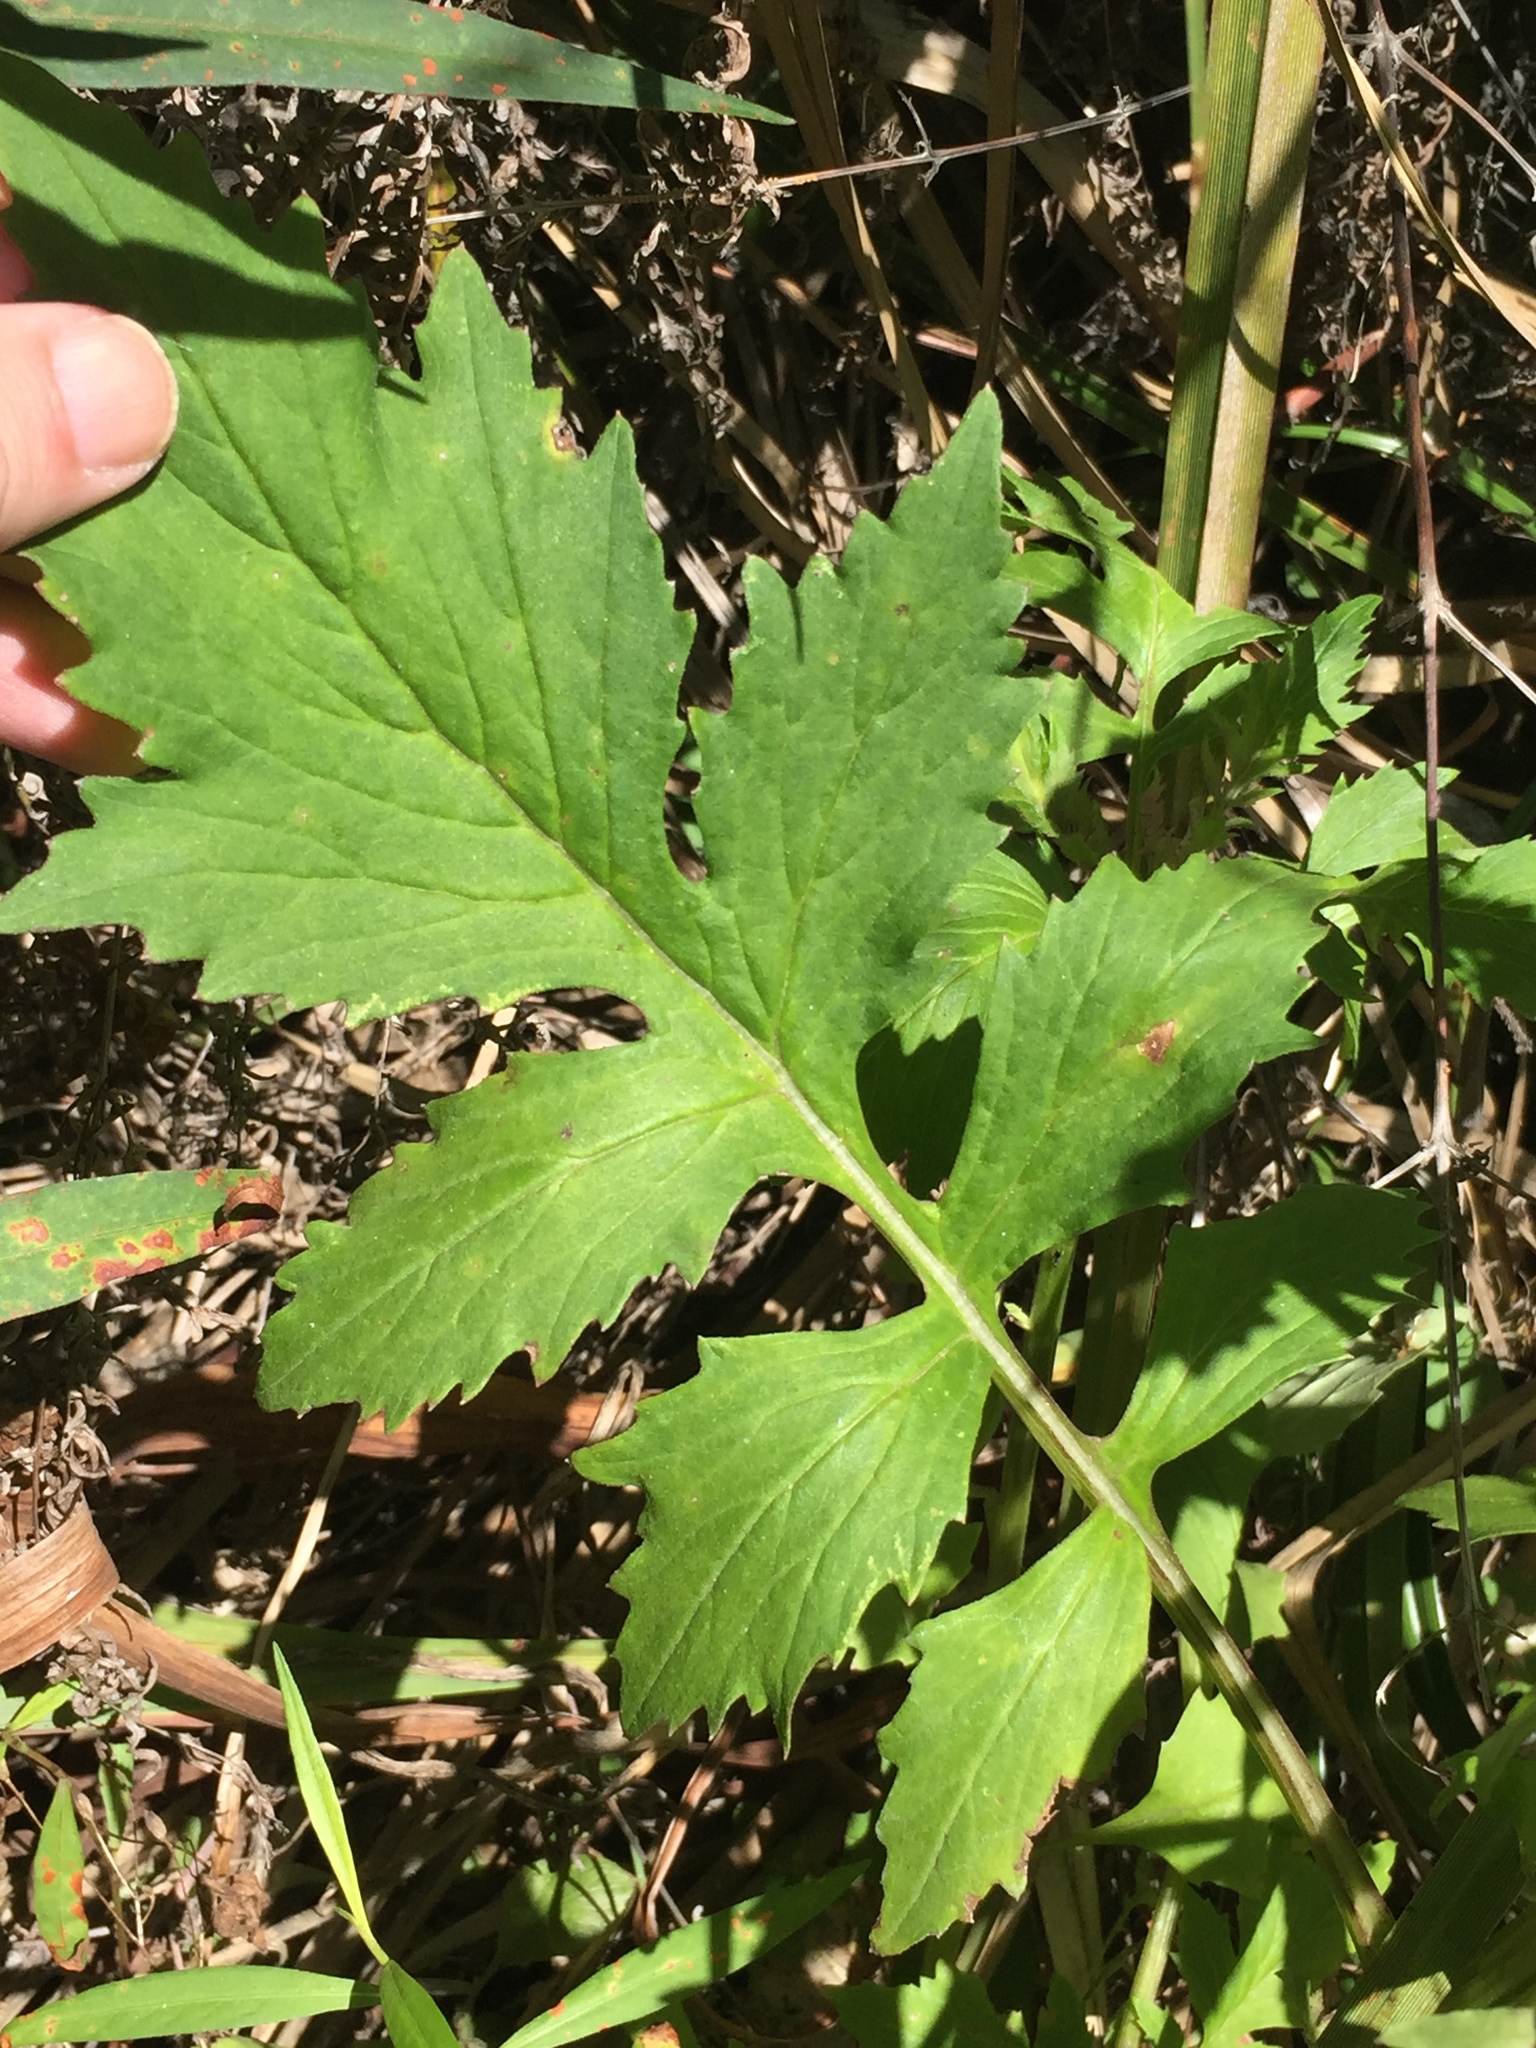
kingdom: Plantae
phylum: Tracheophyta
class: Magnoliopsida
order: Asterales
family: Asteraceae
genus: Erechtites
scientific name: Erechtites valerianifolius
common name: Tropical burnweed
